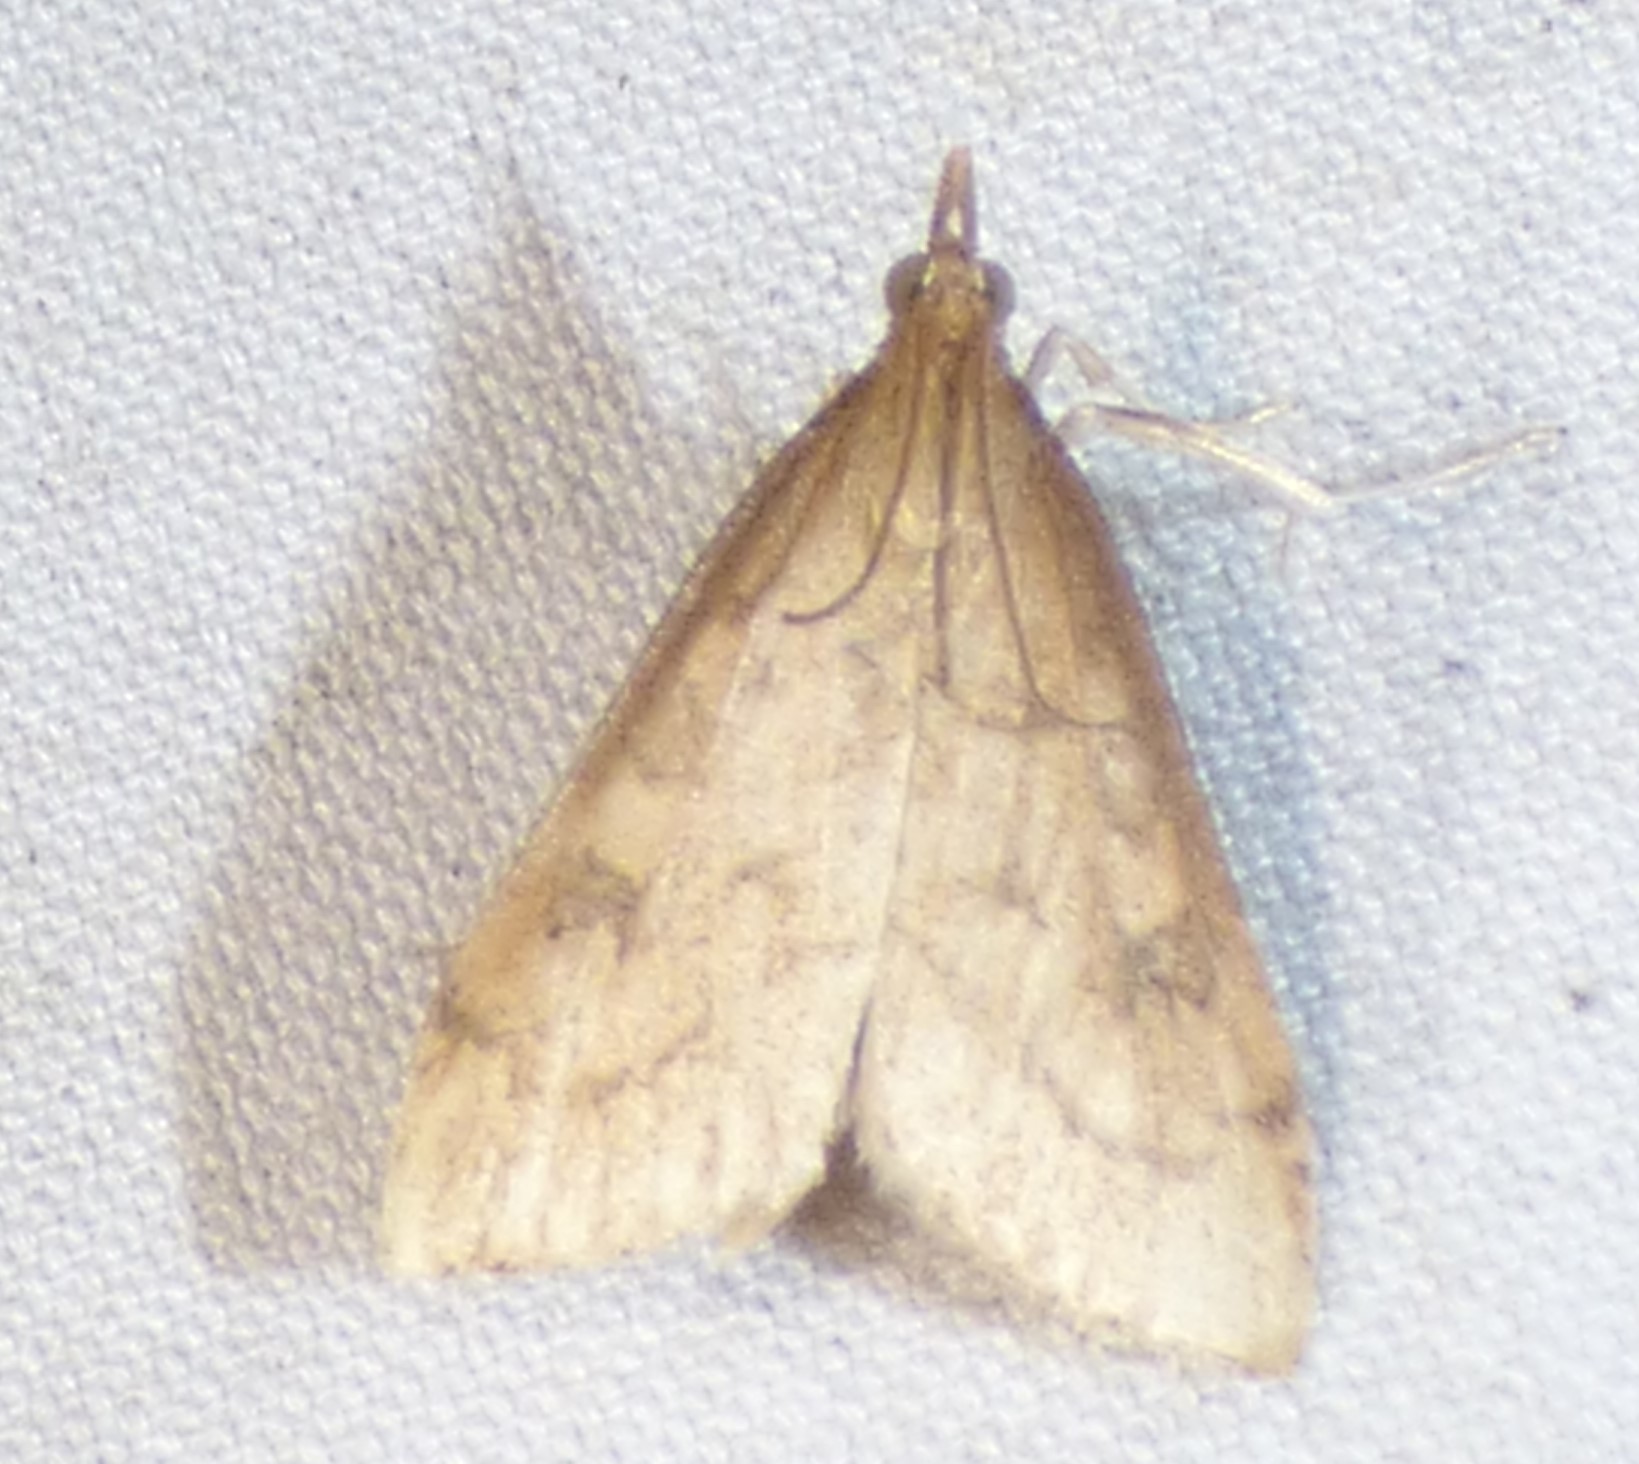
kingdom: Animalia
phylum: Arthropoda
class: Insecta
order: Lepidoptera
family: Crambidae
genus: Udea
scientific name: Udea rubigalis
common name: Celery leaftier moth
